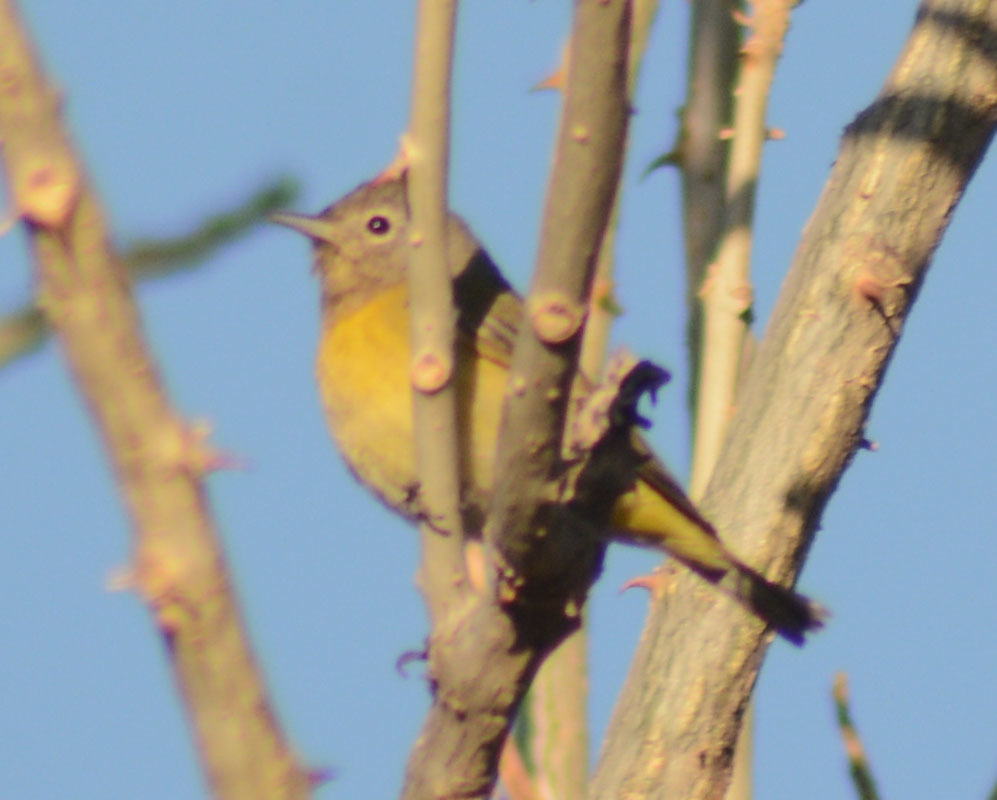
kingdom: Animalia
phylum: Chordata
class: Aves
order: Passeriformes
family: Parulidae
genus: Leiothlypis
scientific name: Leiothlypis ruficapilla
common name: Nashville warbler
